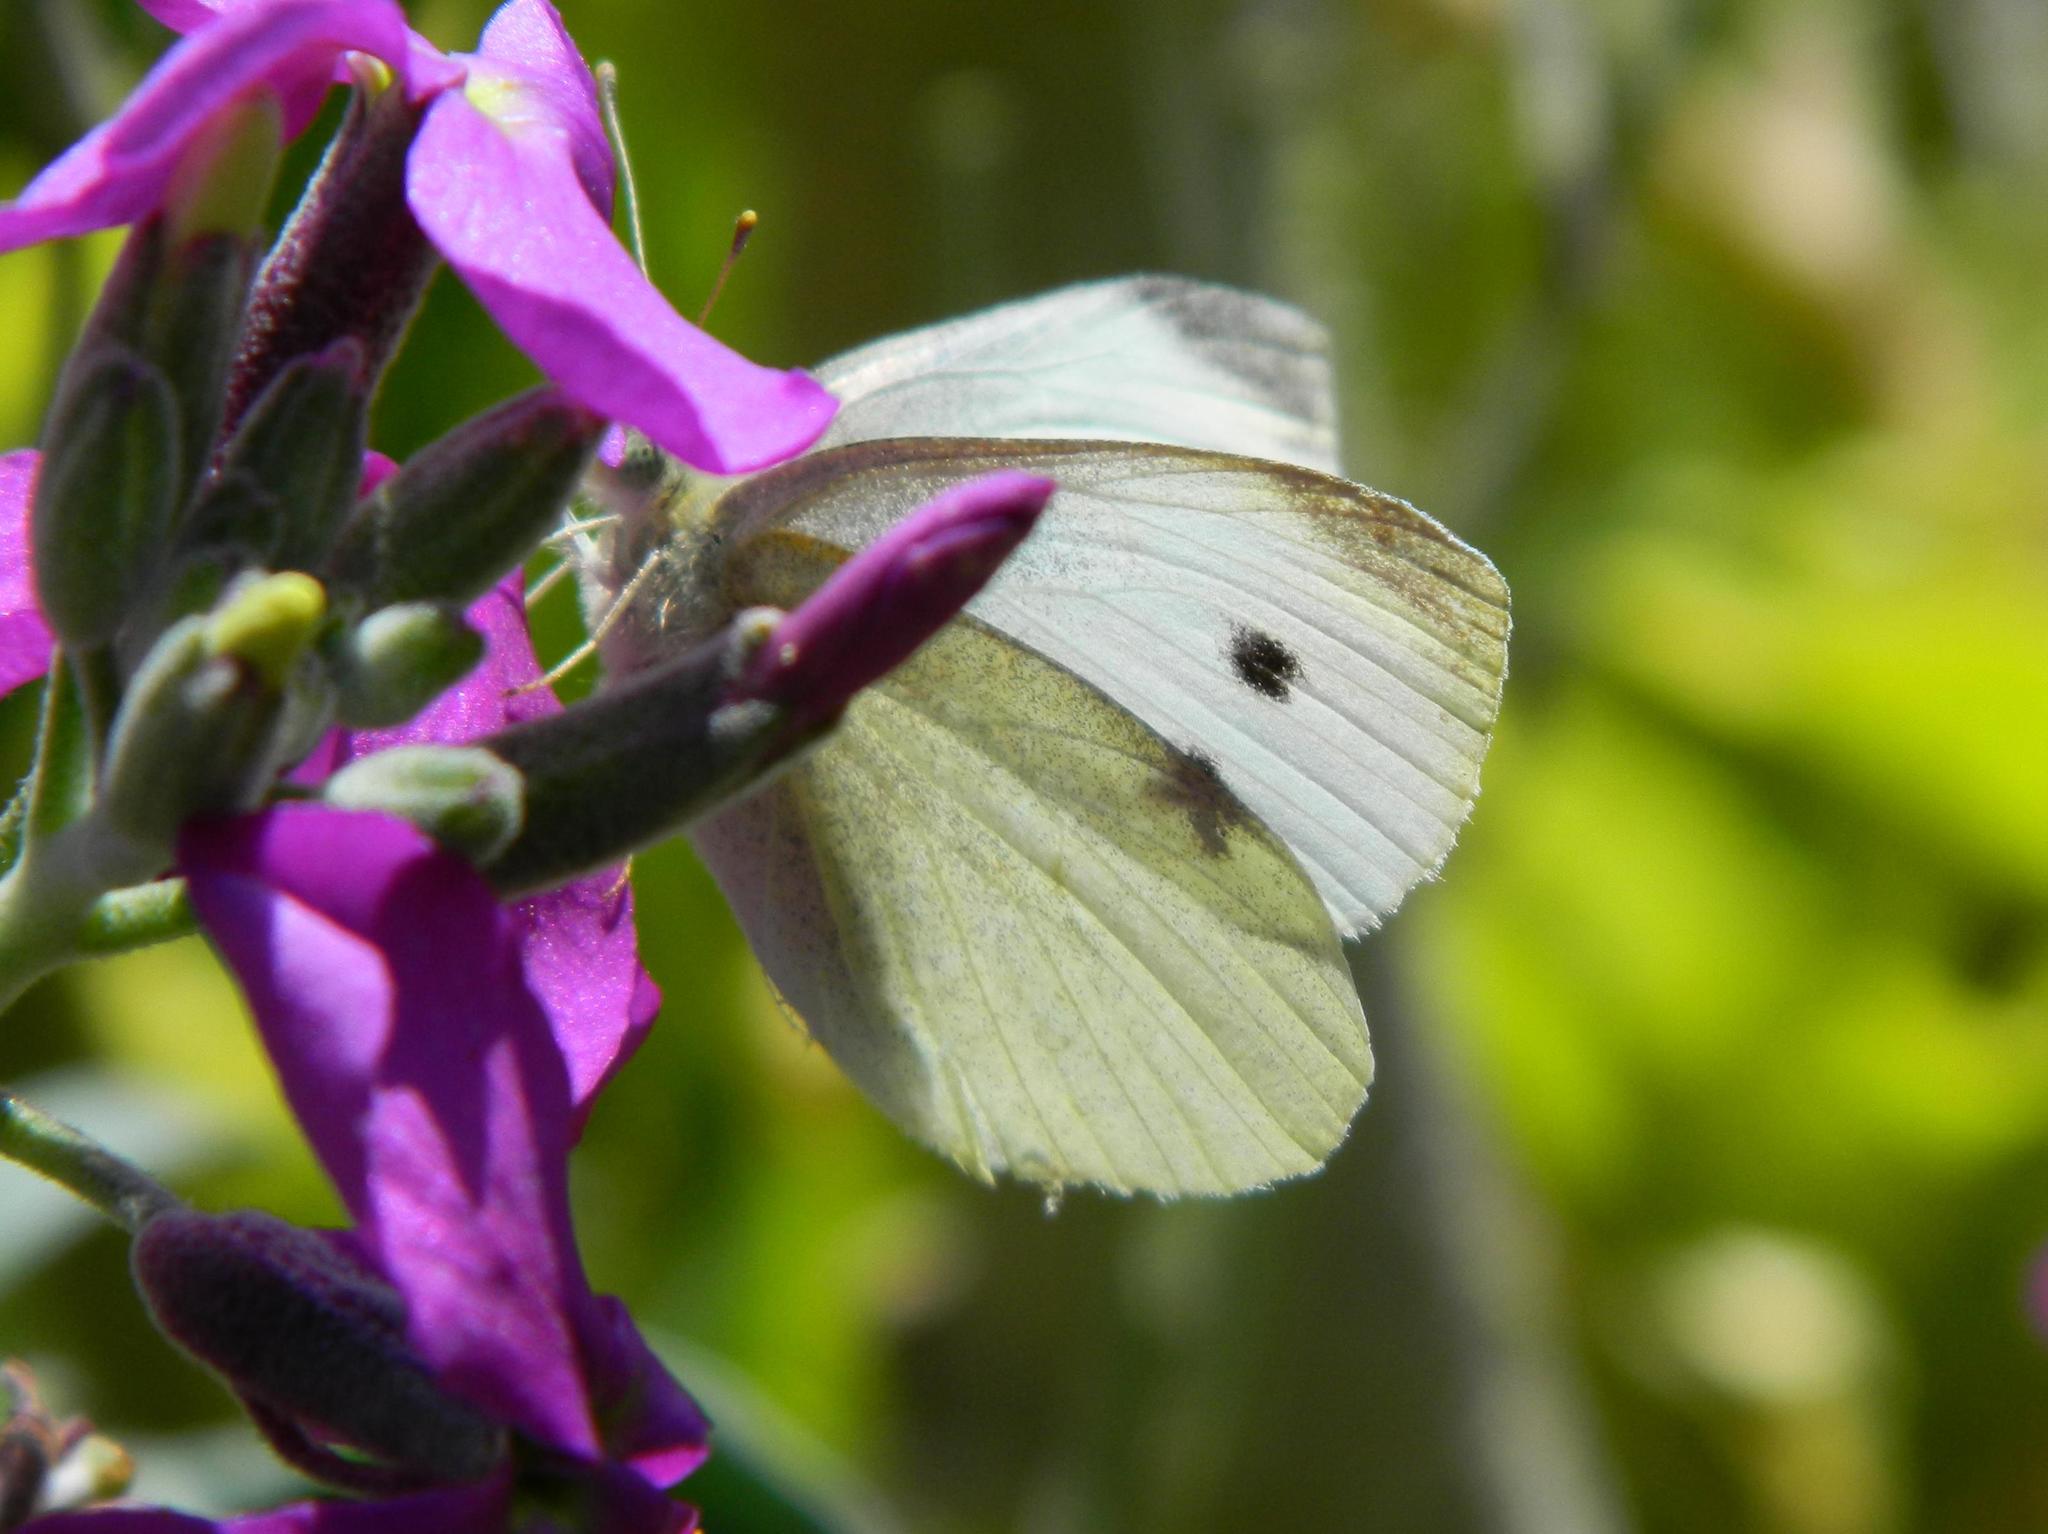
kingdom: Animalia
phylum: Arthropoda
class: Insecta
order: Lepidoptera
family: Pieridae
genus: Pieris
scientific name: Pieris rapae
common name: Small white
